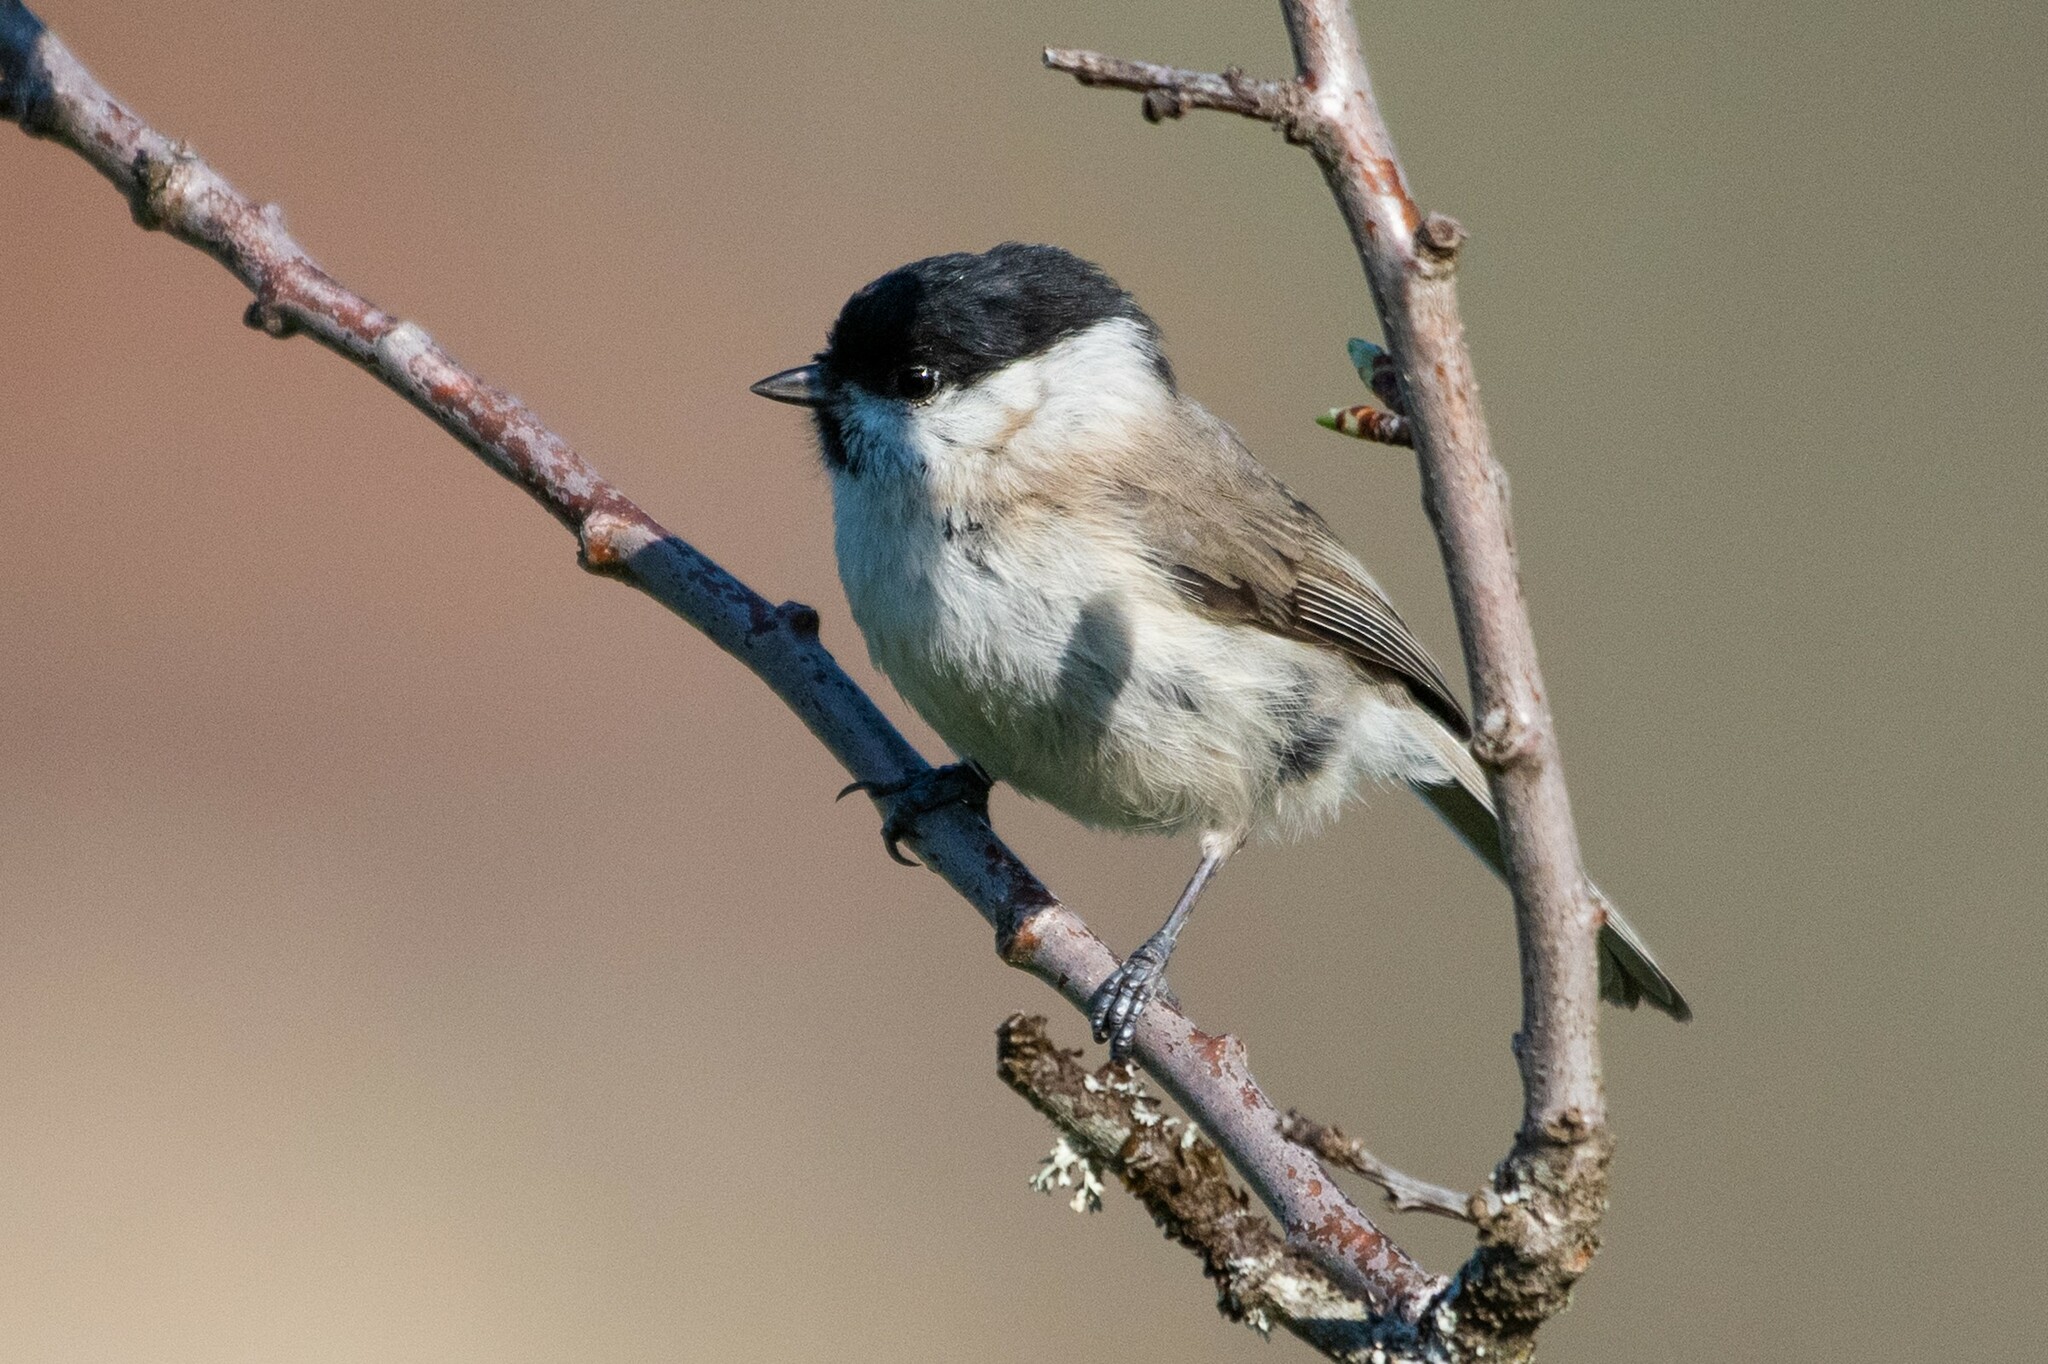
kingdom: Animalia
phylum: Chordata
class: Aves
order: Passeriformes
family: Paridae
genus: Poecile
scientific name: Poecile palustris
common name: Marsh tit
